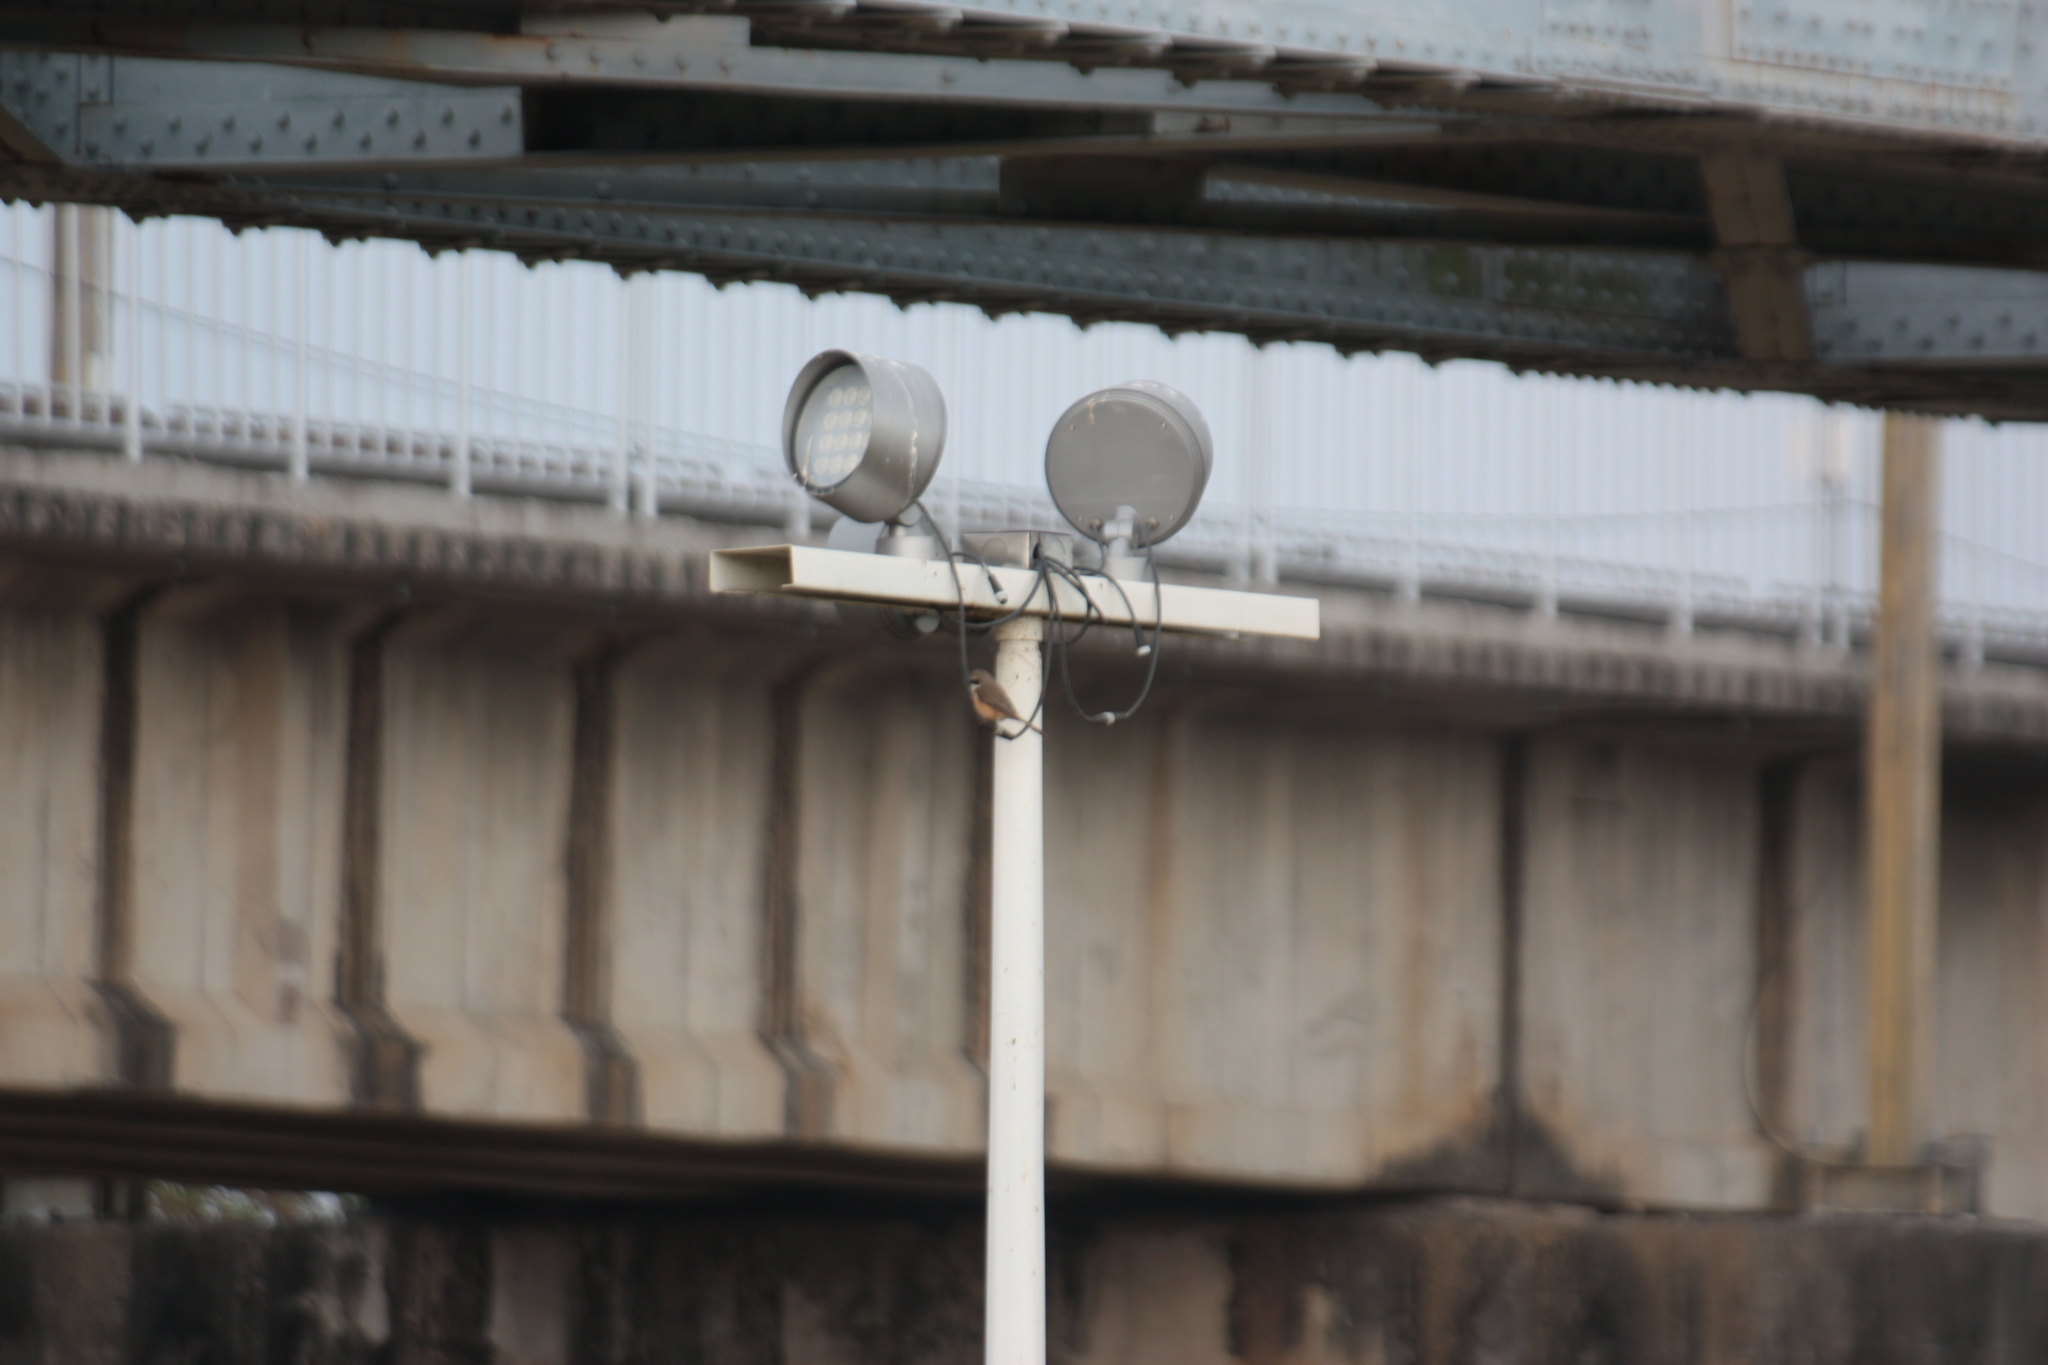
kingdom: Animalia
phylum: Chordata
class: Aves
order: Passeriformes
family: Laniidae
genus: Lanius
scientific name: Lanius cristatus
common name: Brown shrike
